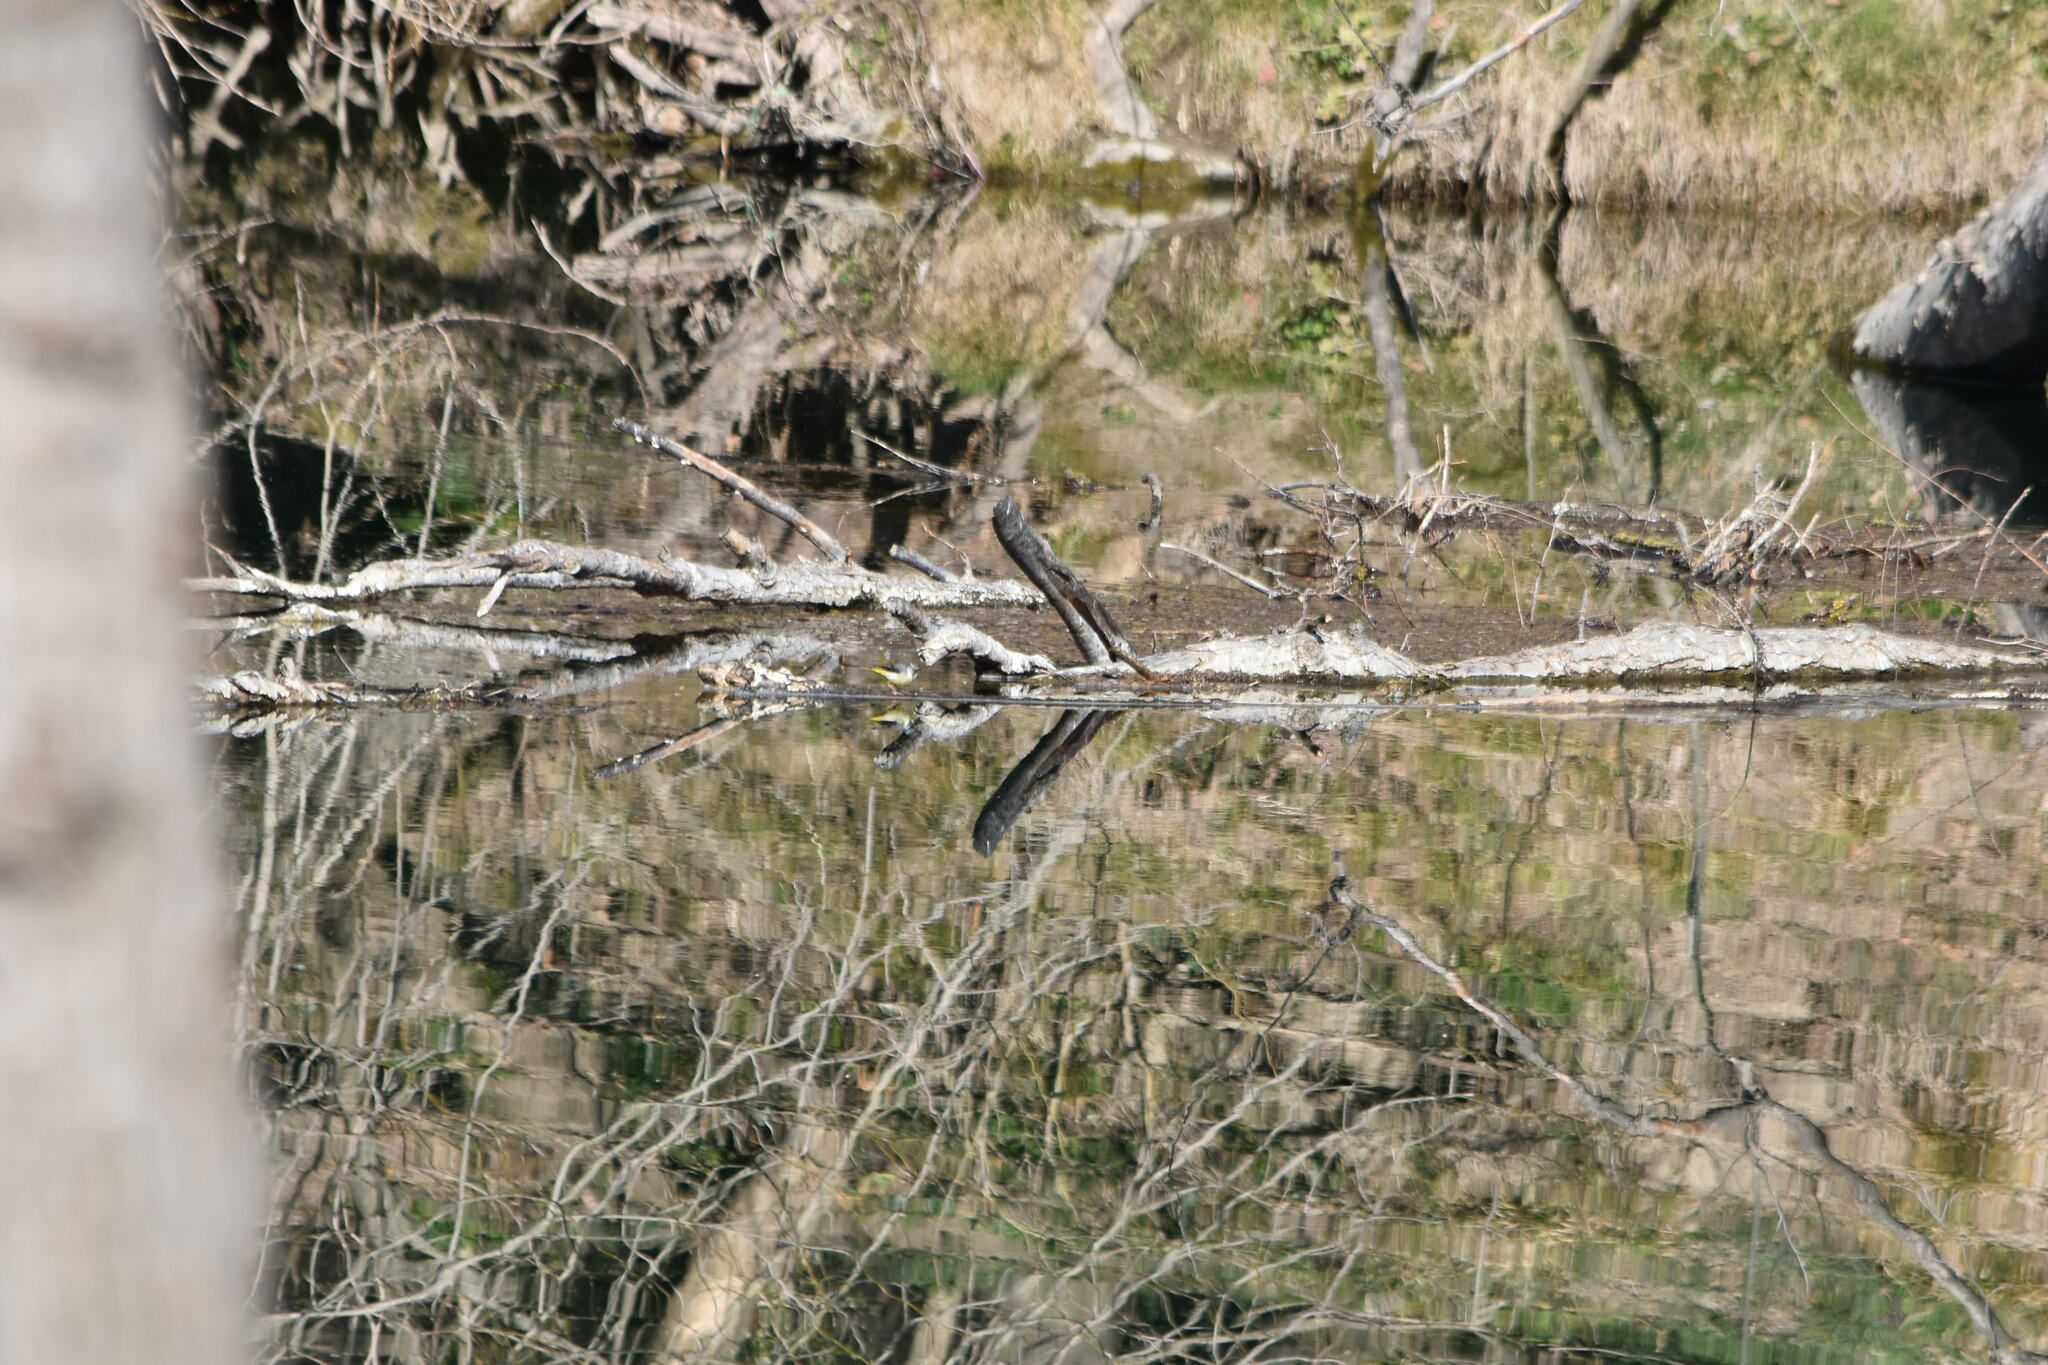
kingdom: Animalia
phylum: Chordata
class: Aves
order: Passeriformes
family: Motacillidae
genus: Motacilla
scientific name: Motacilla cinerea
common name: Grey wagtail
